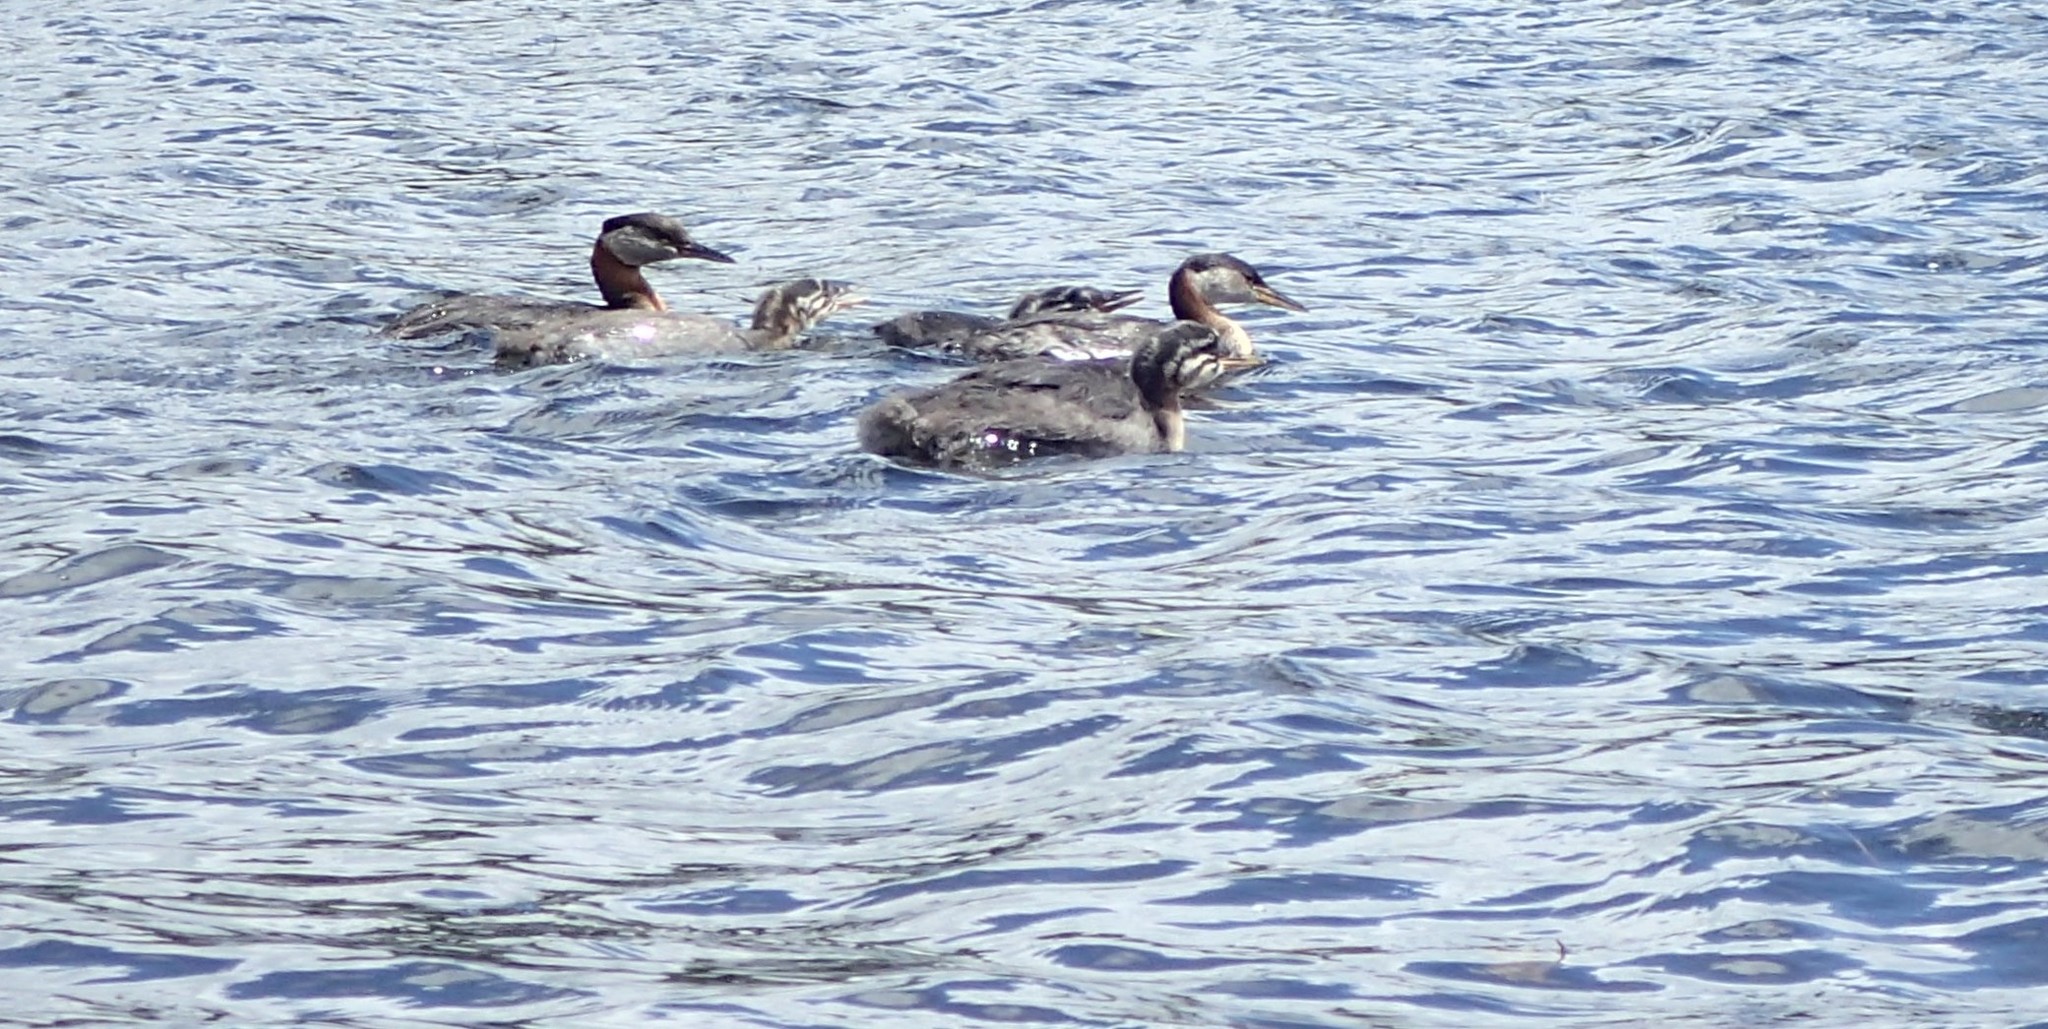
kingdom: Animalia
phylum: Chordata
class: Aves
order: Podicipediformes
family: Podicipedidae
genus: Podiceps
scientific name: Podiceps grisegena
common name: Red-necked grebe
